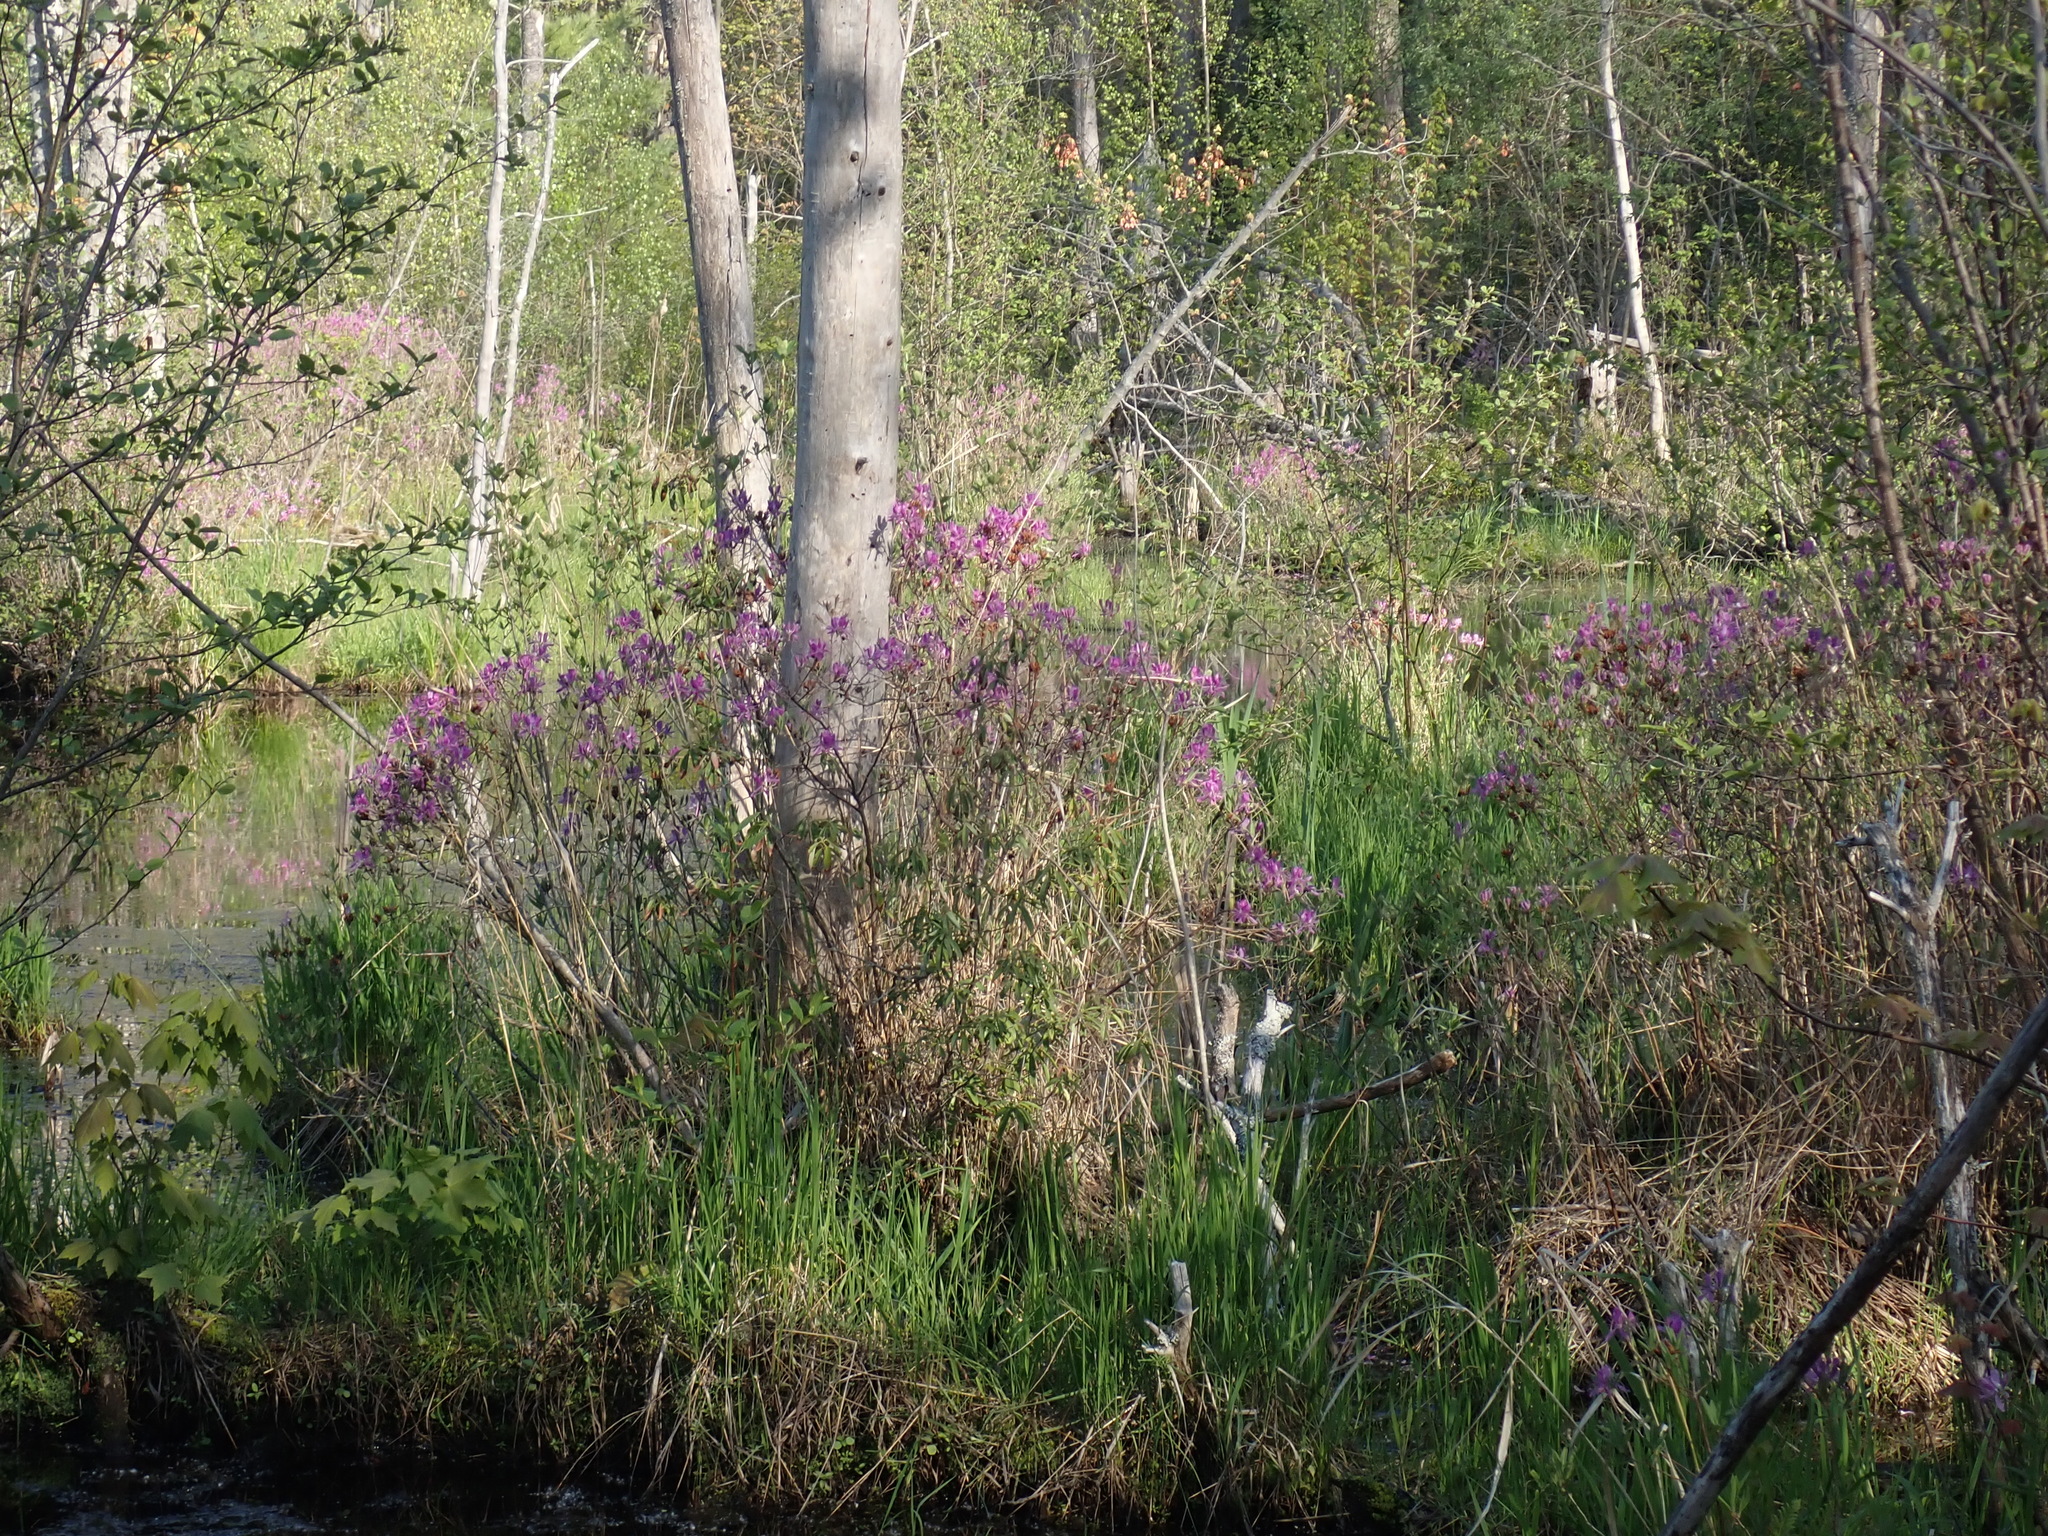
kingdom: Plantae
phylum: Tracheophyta
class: Magnoliopsida
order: Ericales
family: Ericaceae
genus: Rhododendron
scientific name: Rhododendron canadense
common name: Rhodora
